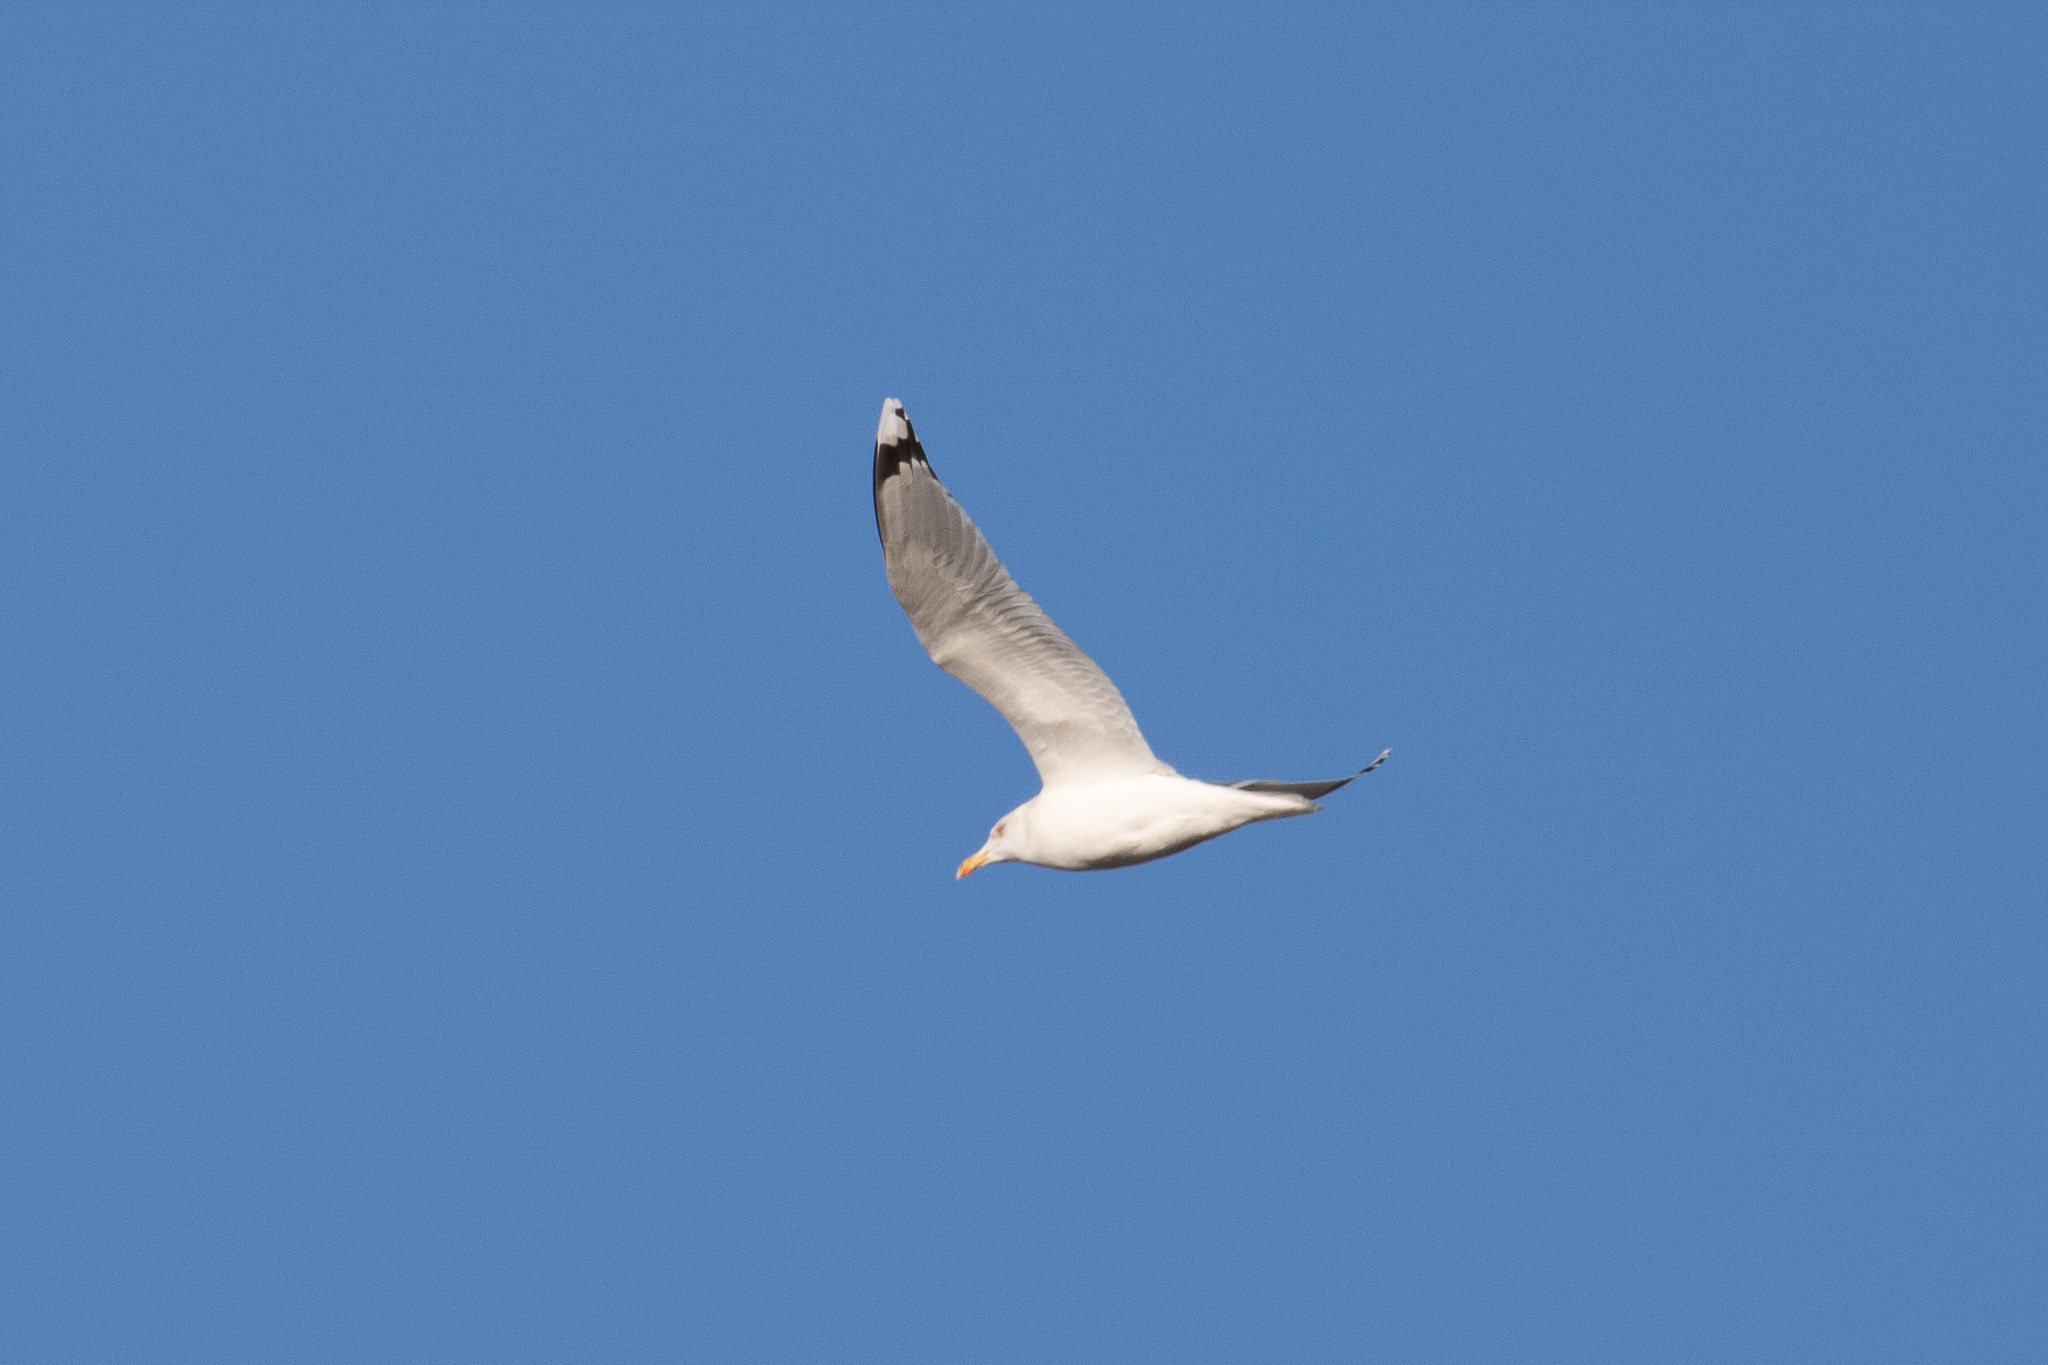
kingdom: Animalia
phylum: Chordata
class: Aves
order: Charadriiformes
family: Laridae
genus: Larus
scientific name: Larus argentatus
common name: Herring gull
